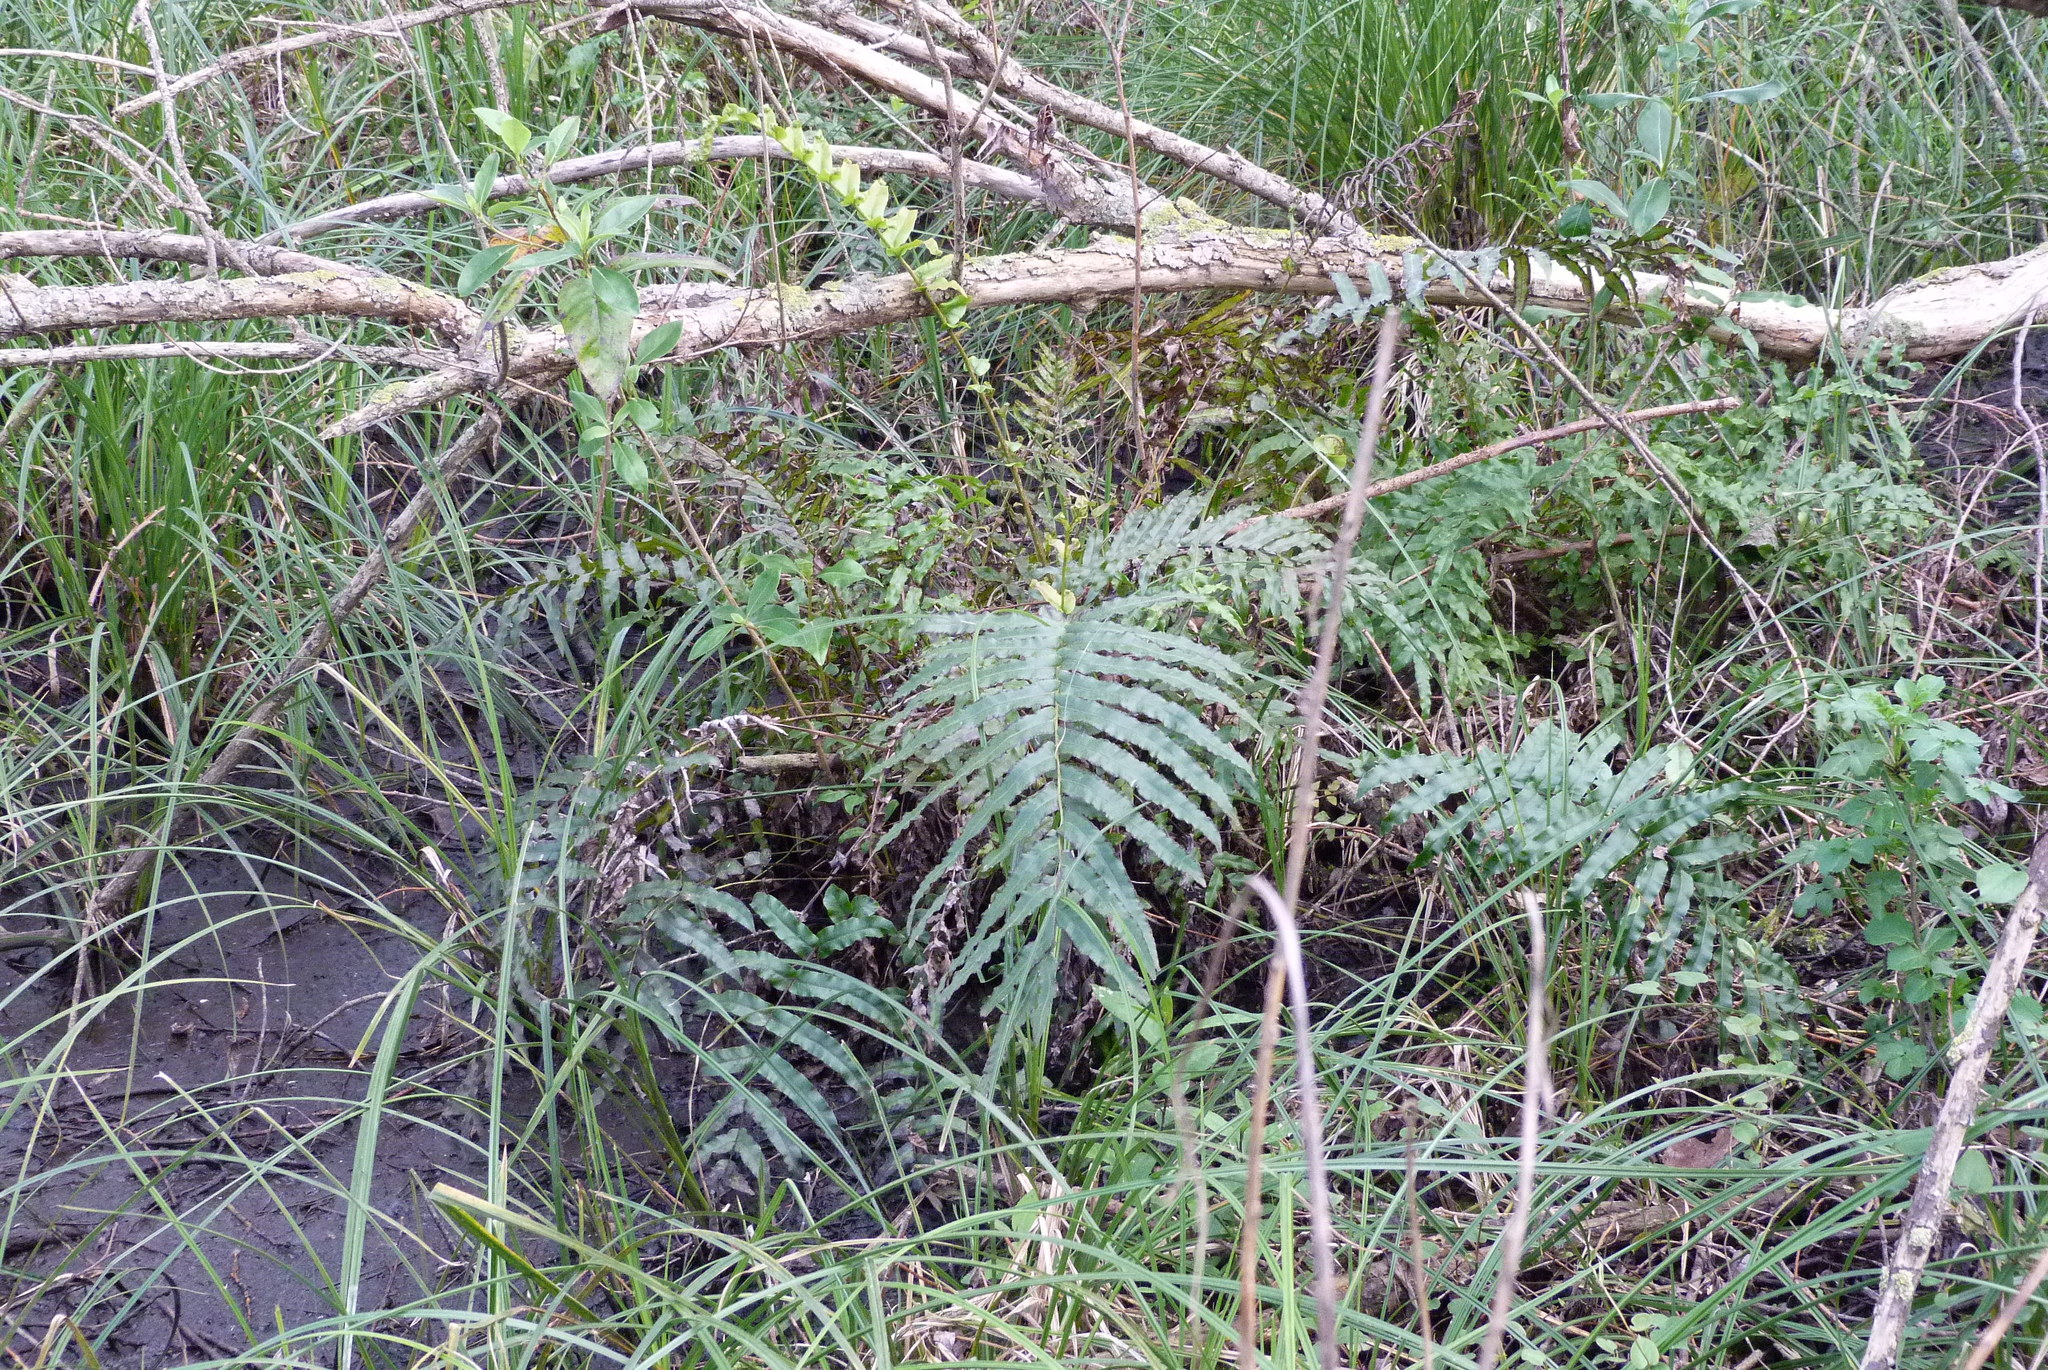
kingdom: Plantae
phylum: Tracheophyta
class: Polypodiopsida
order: Polypodiales
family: Blechnaceae
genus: Parablechnum
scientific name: Parablechnum novae-zelandiae
